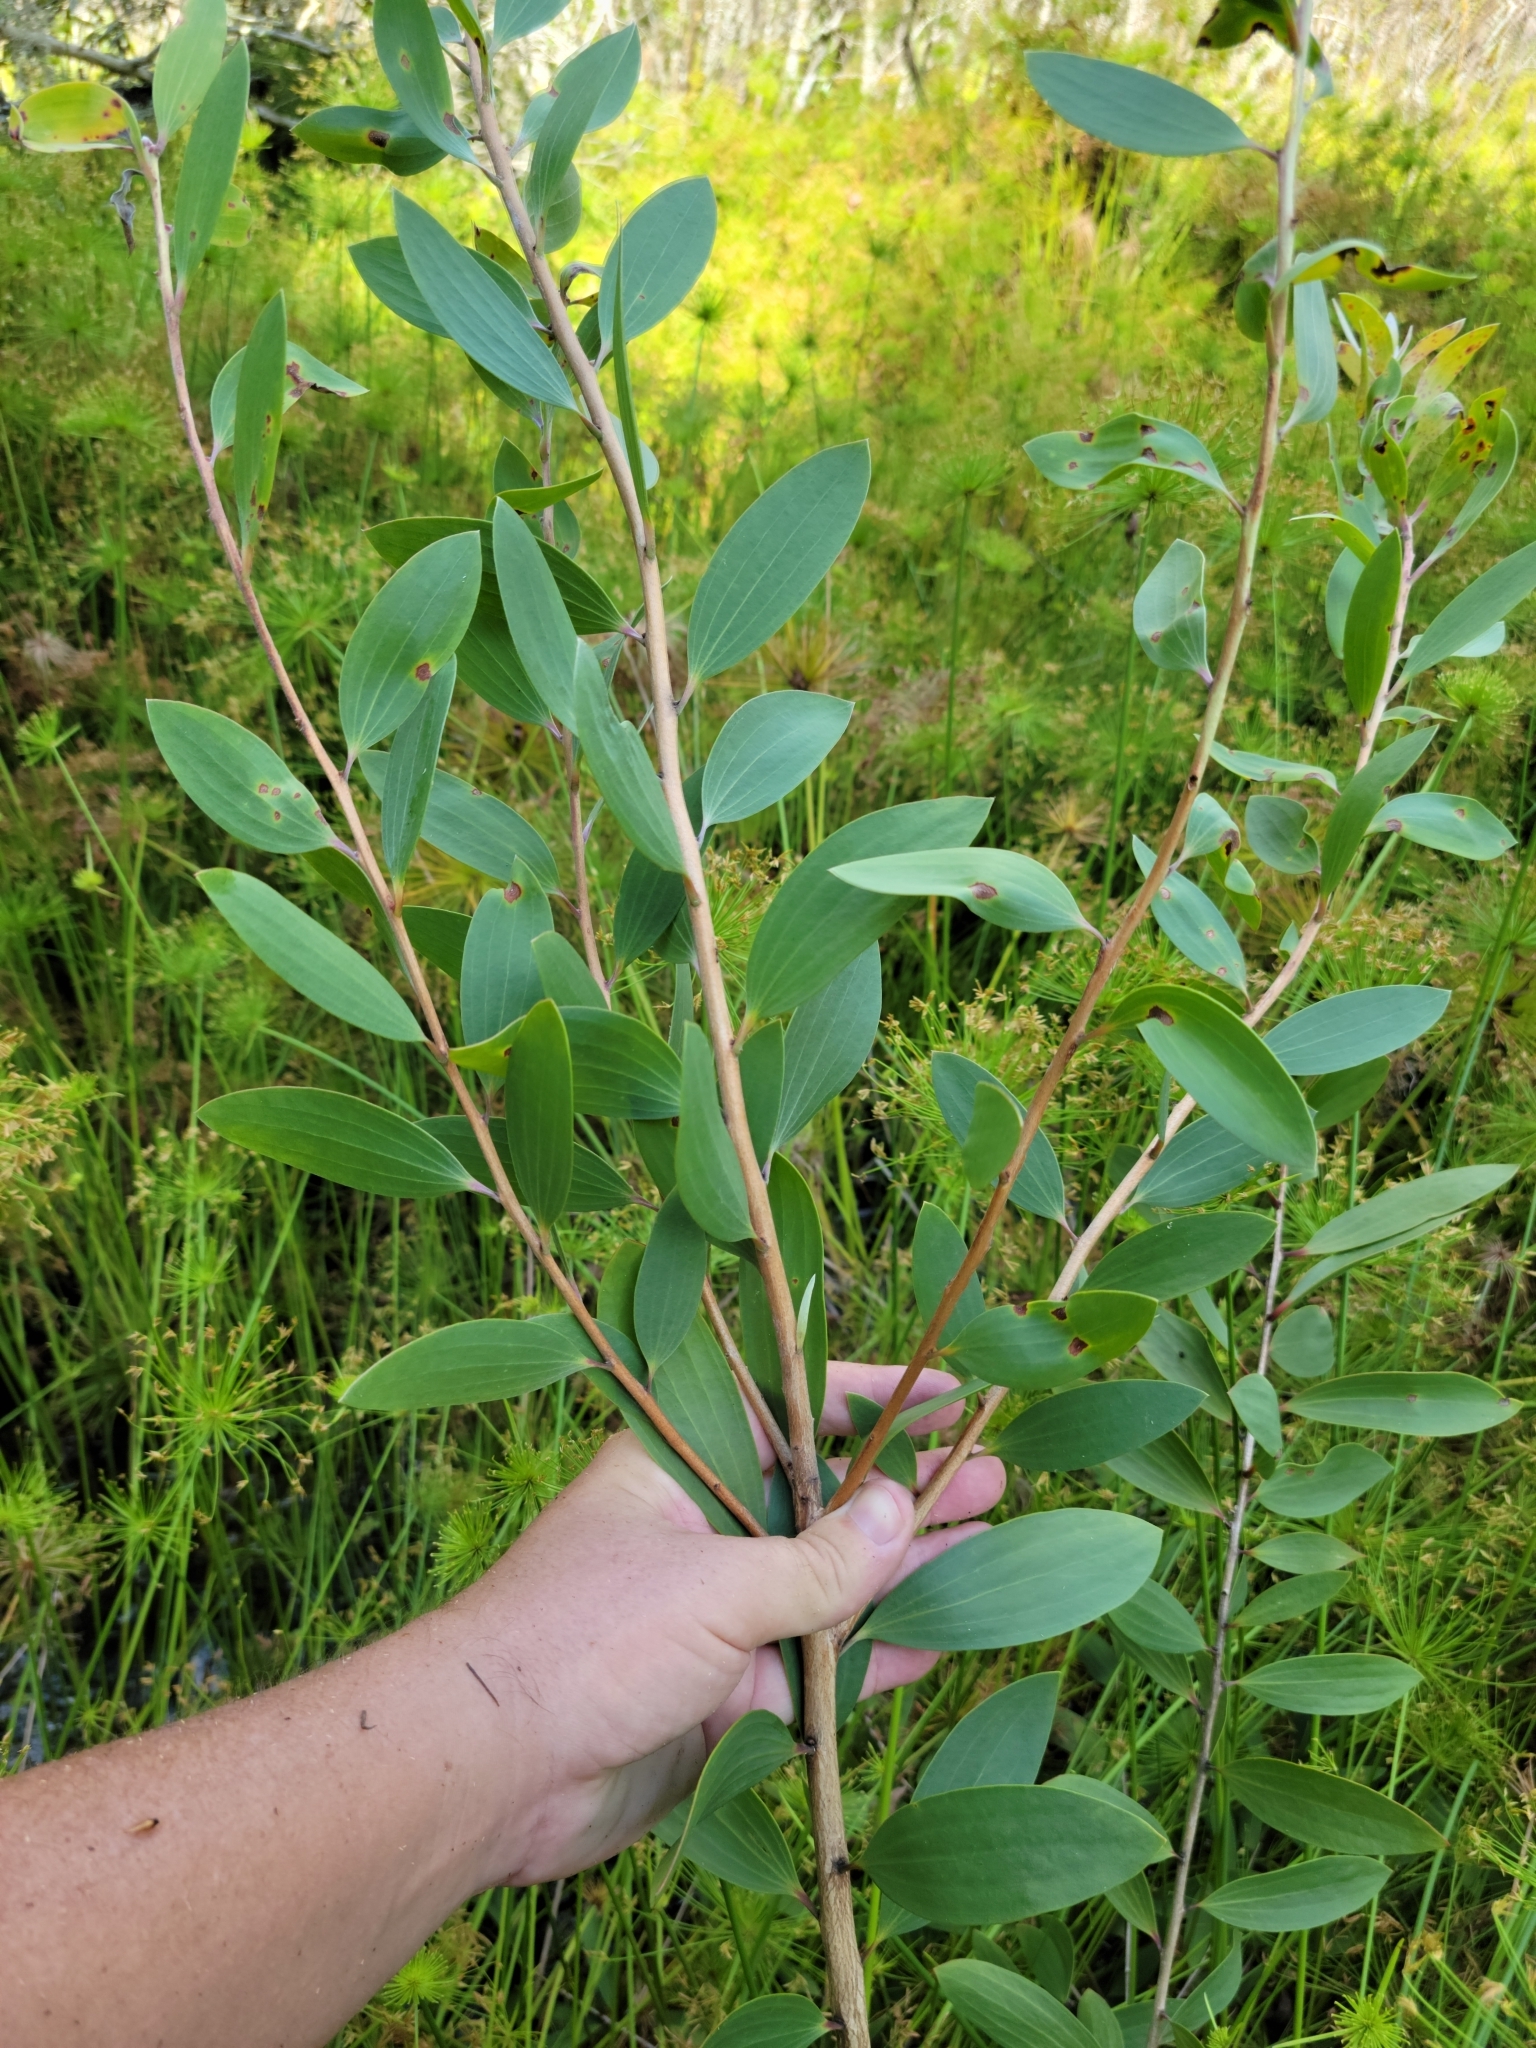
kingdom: Plantae
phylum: Tracheophyta
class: Magnoliopsida
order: Myrtales
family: Myrtaceae
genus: Melaleuca
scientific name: Melaleuca quinquenervia
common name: Punktree
